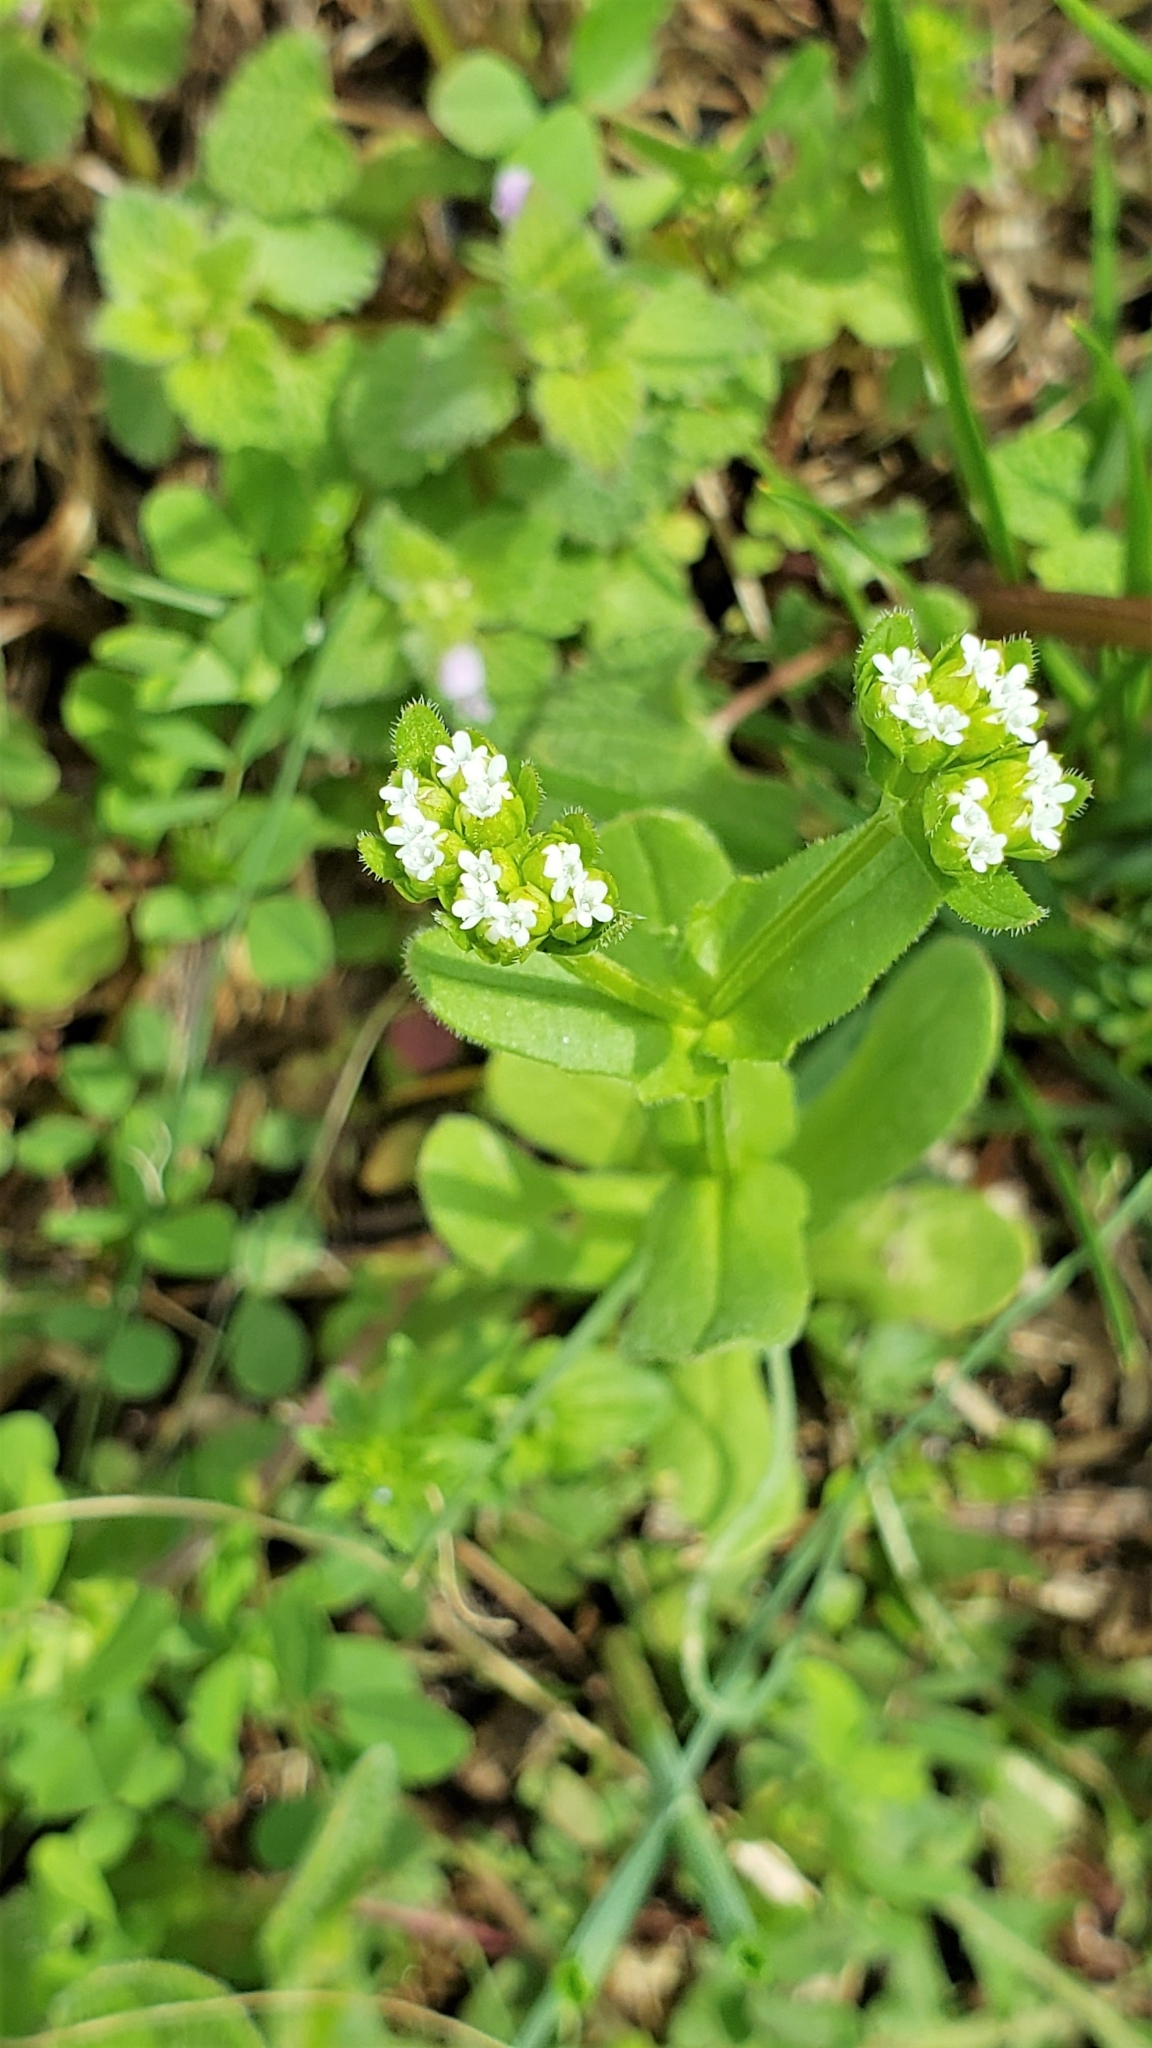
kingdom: Plantae
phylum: Tracheophyta
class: Magnoliopsida
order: Dipsacales
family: Caprifoliaceae
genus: Valerianella
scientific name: Valerianella radiata
